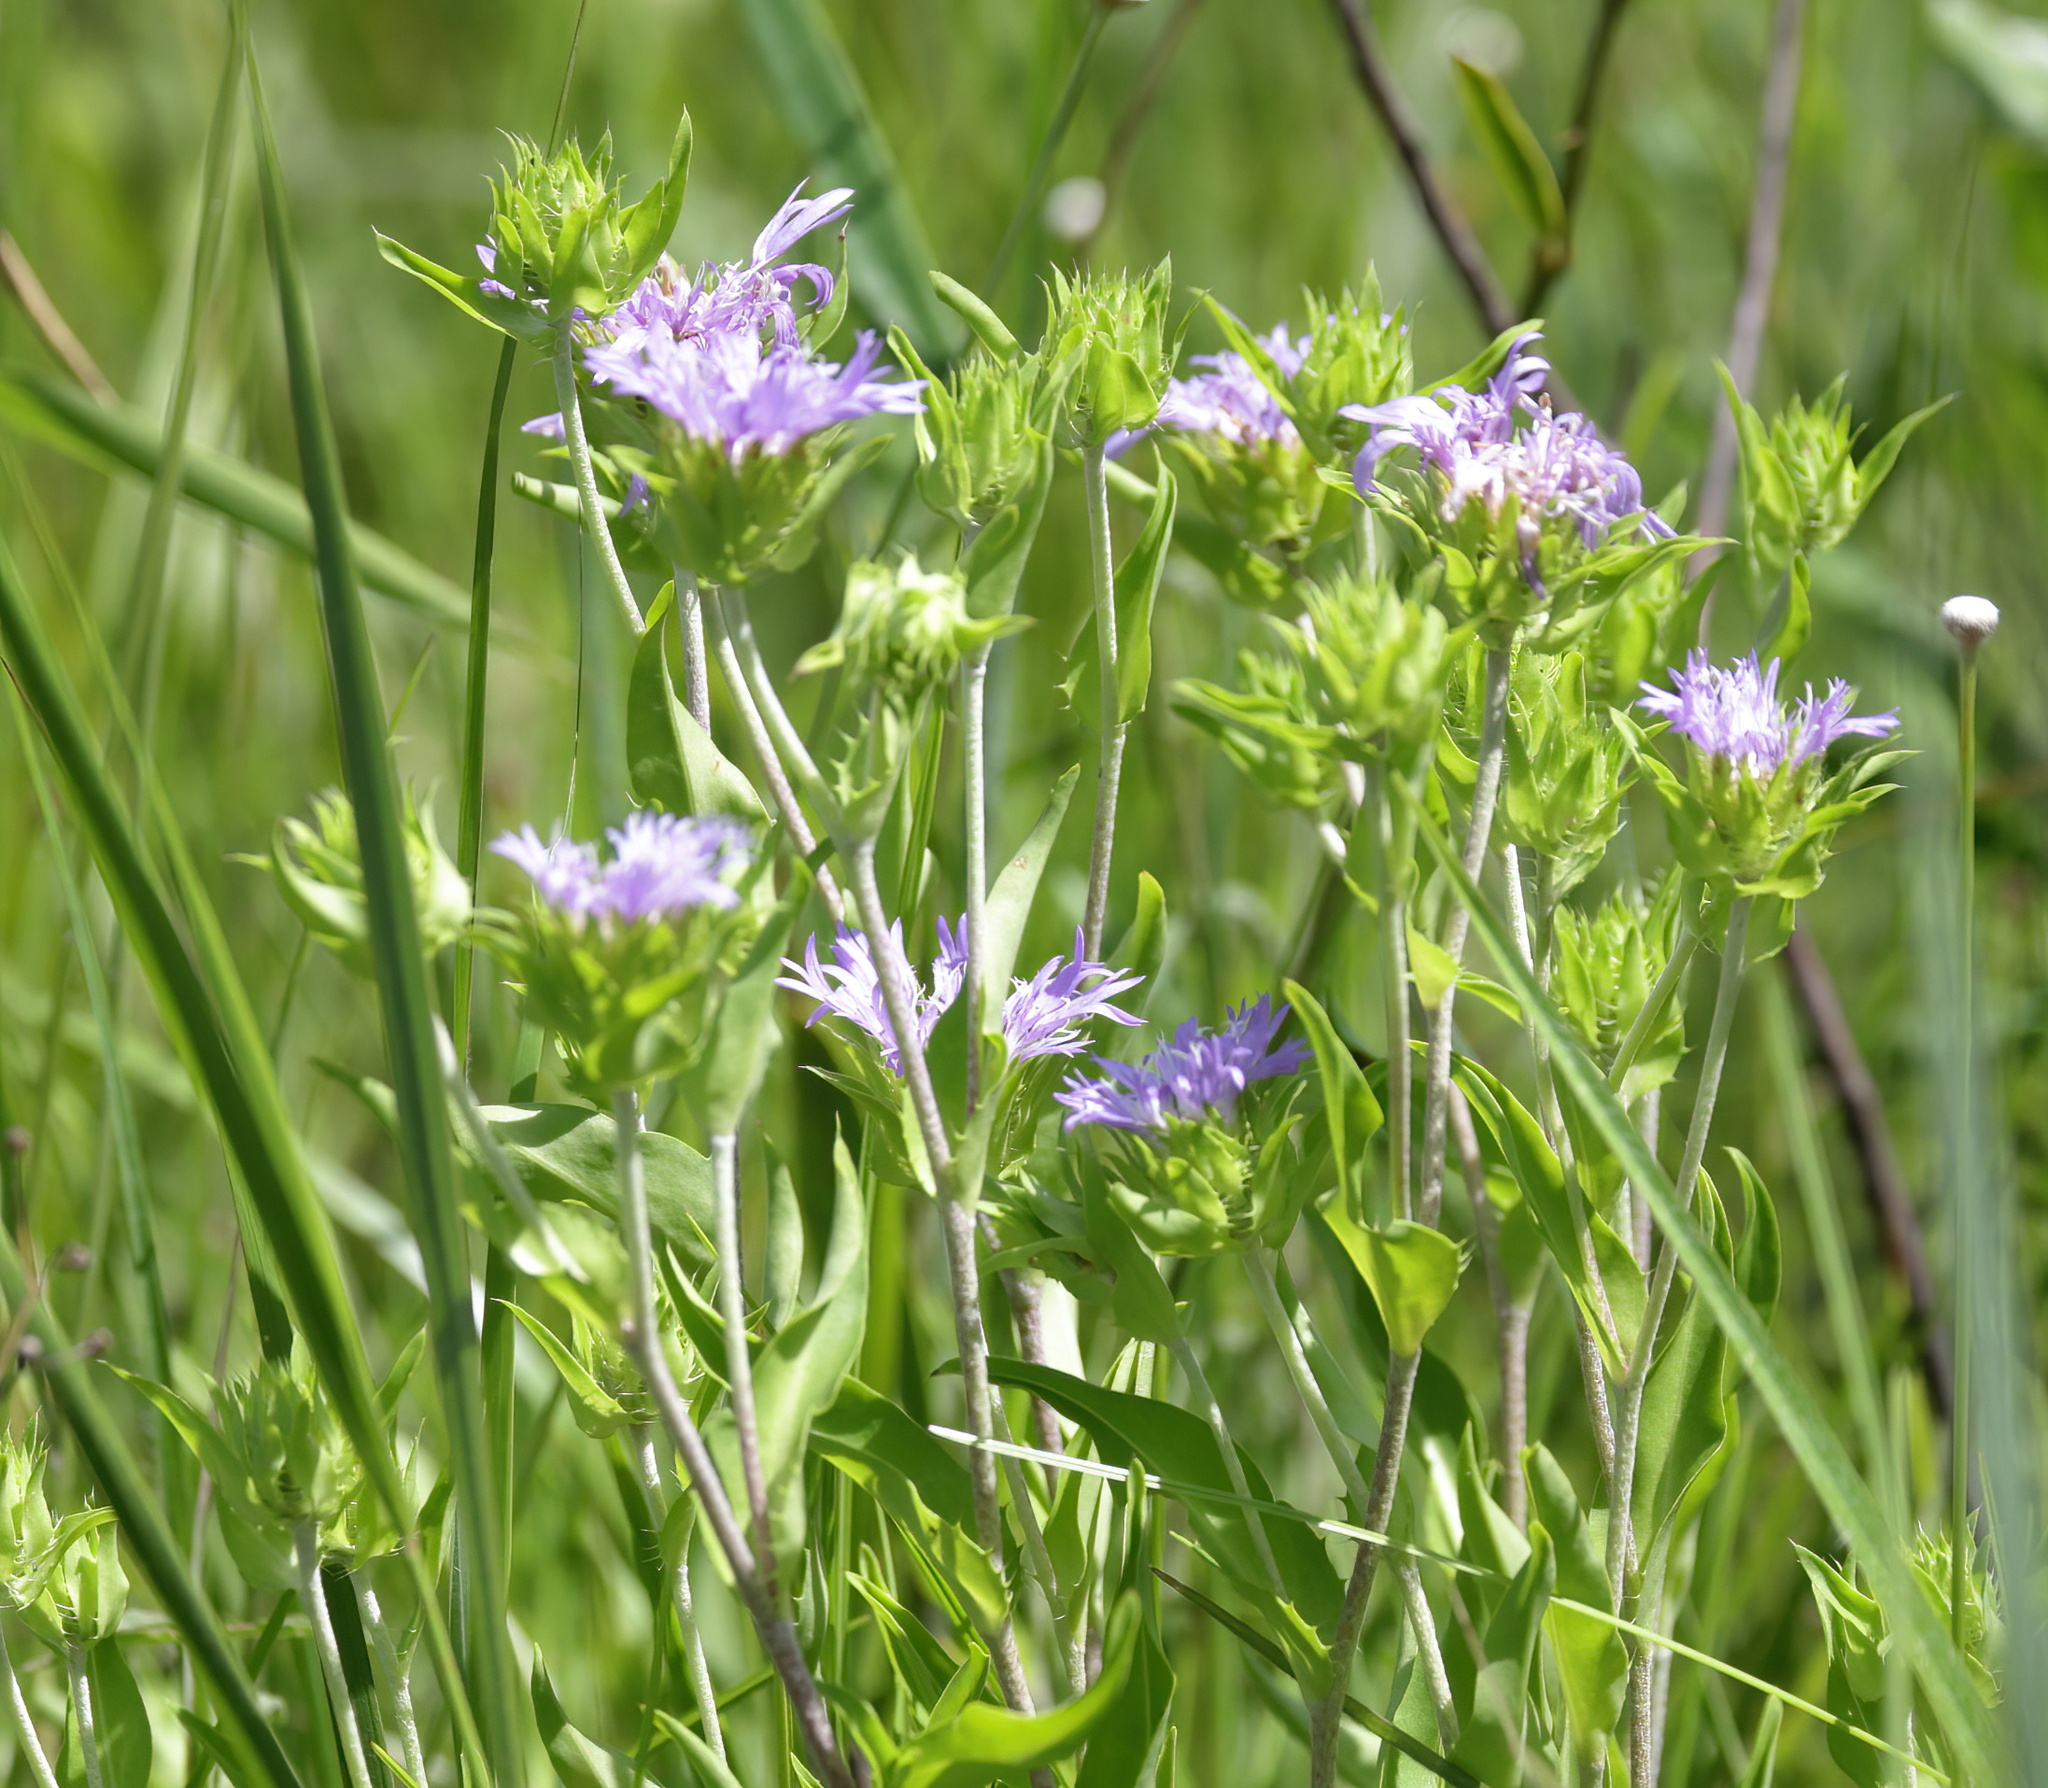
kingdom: Plantae
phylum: Tracheophyta
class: Magnoliopsida
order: Asterales
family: Asteraceae
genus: Stokesia
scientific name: Stokesia laevis
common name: Stokes'-aster
